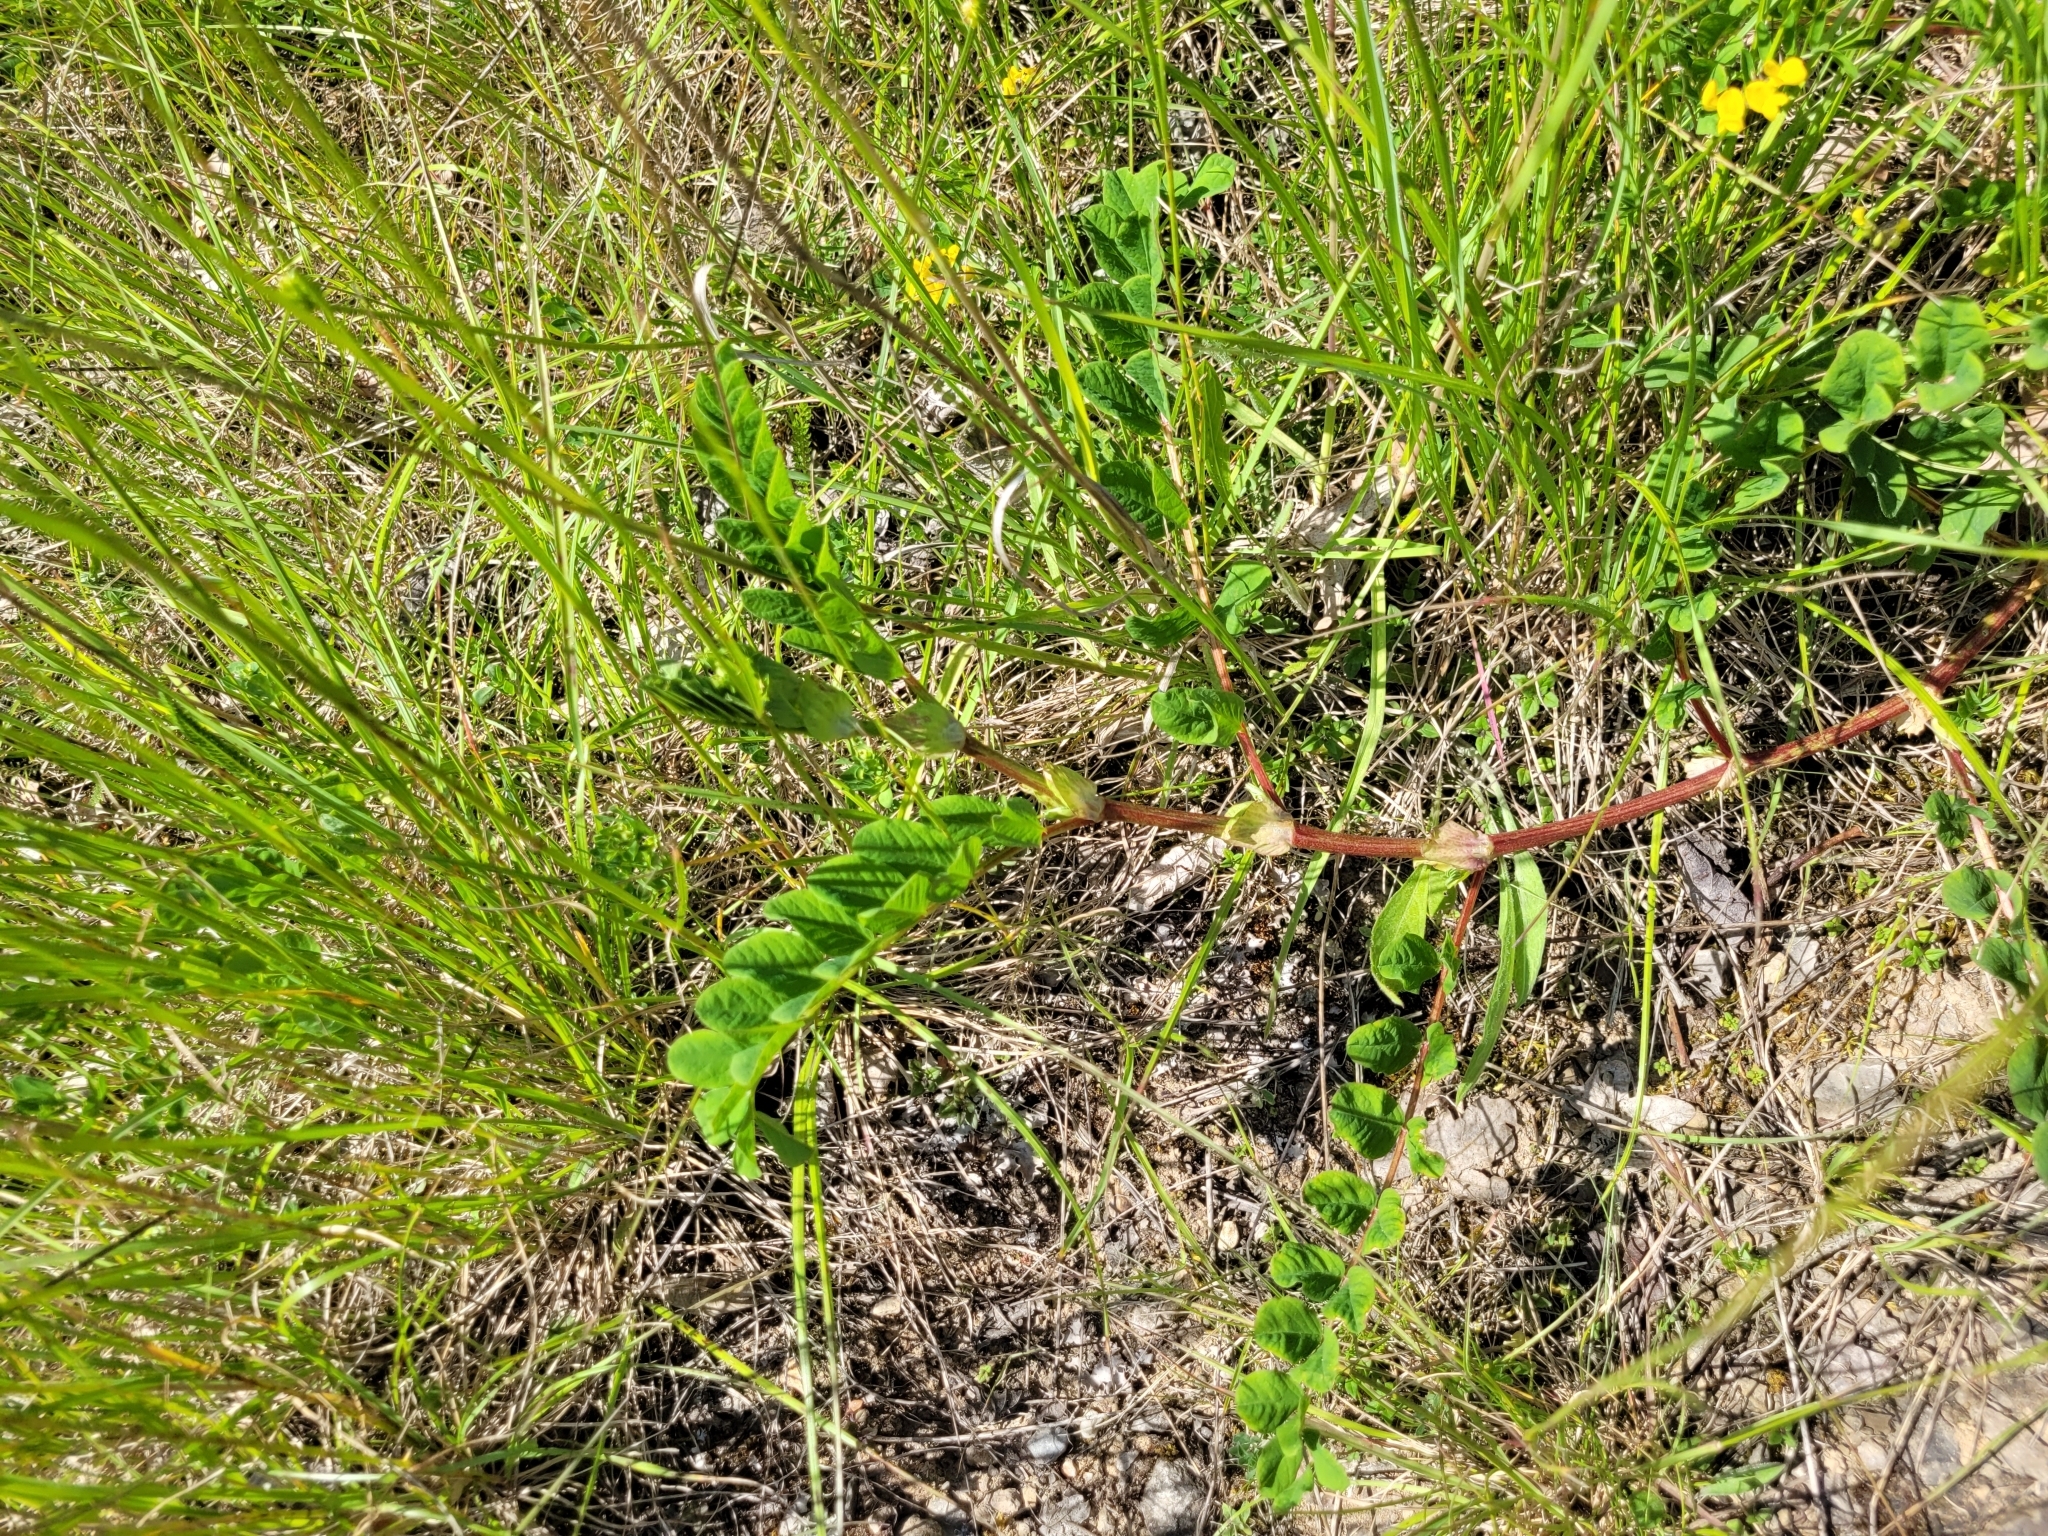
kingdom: Plantae
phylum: Tracheophyta
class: Magnoliopsida
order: Fabales
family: Fabaceae
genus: Astragalus
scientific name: Astragalus glycyphyllos
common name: Wild liquorice
